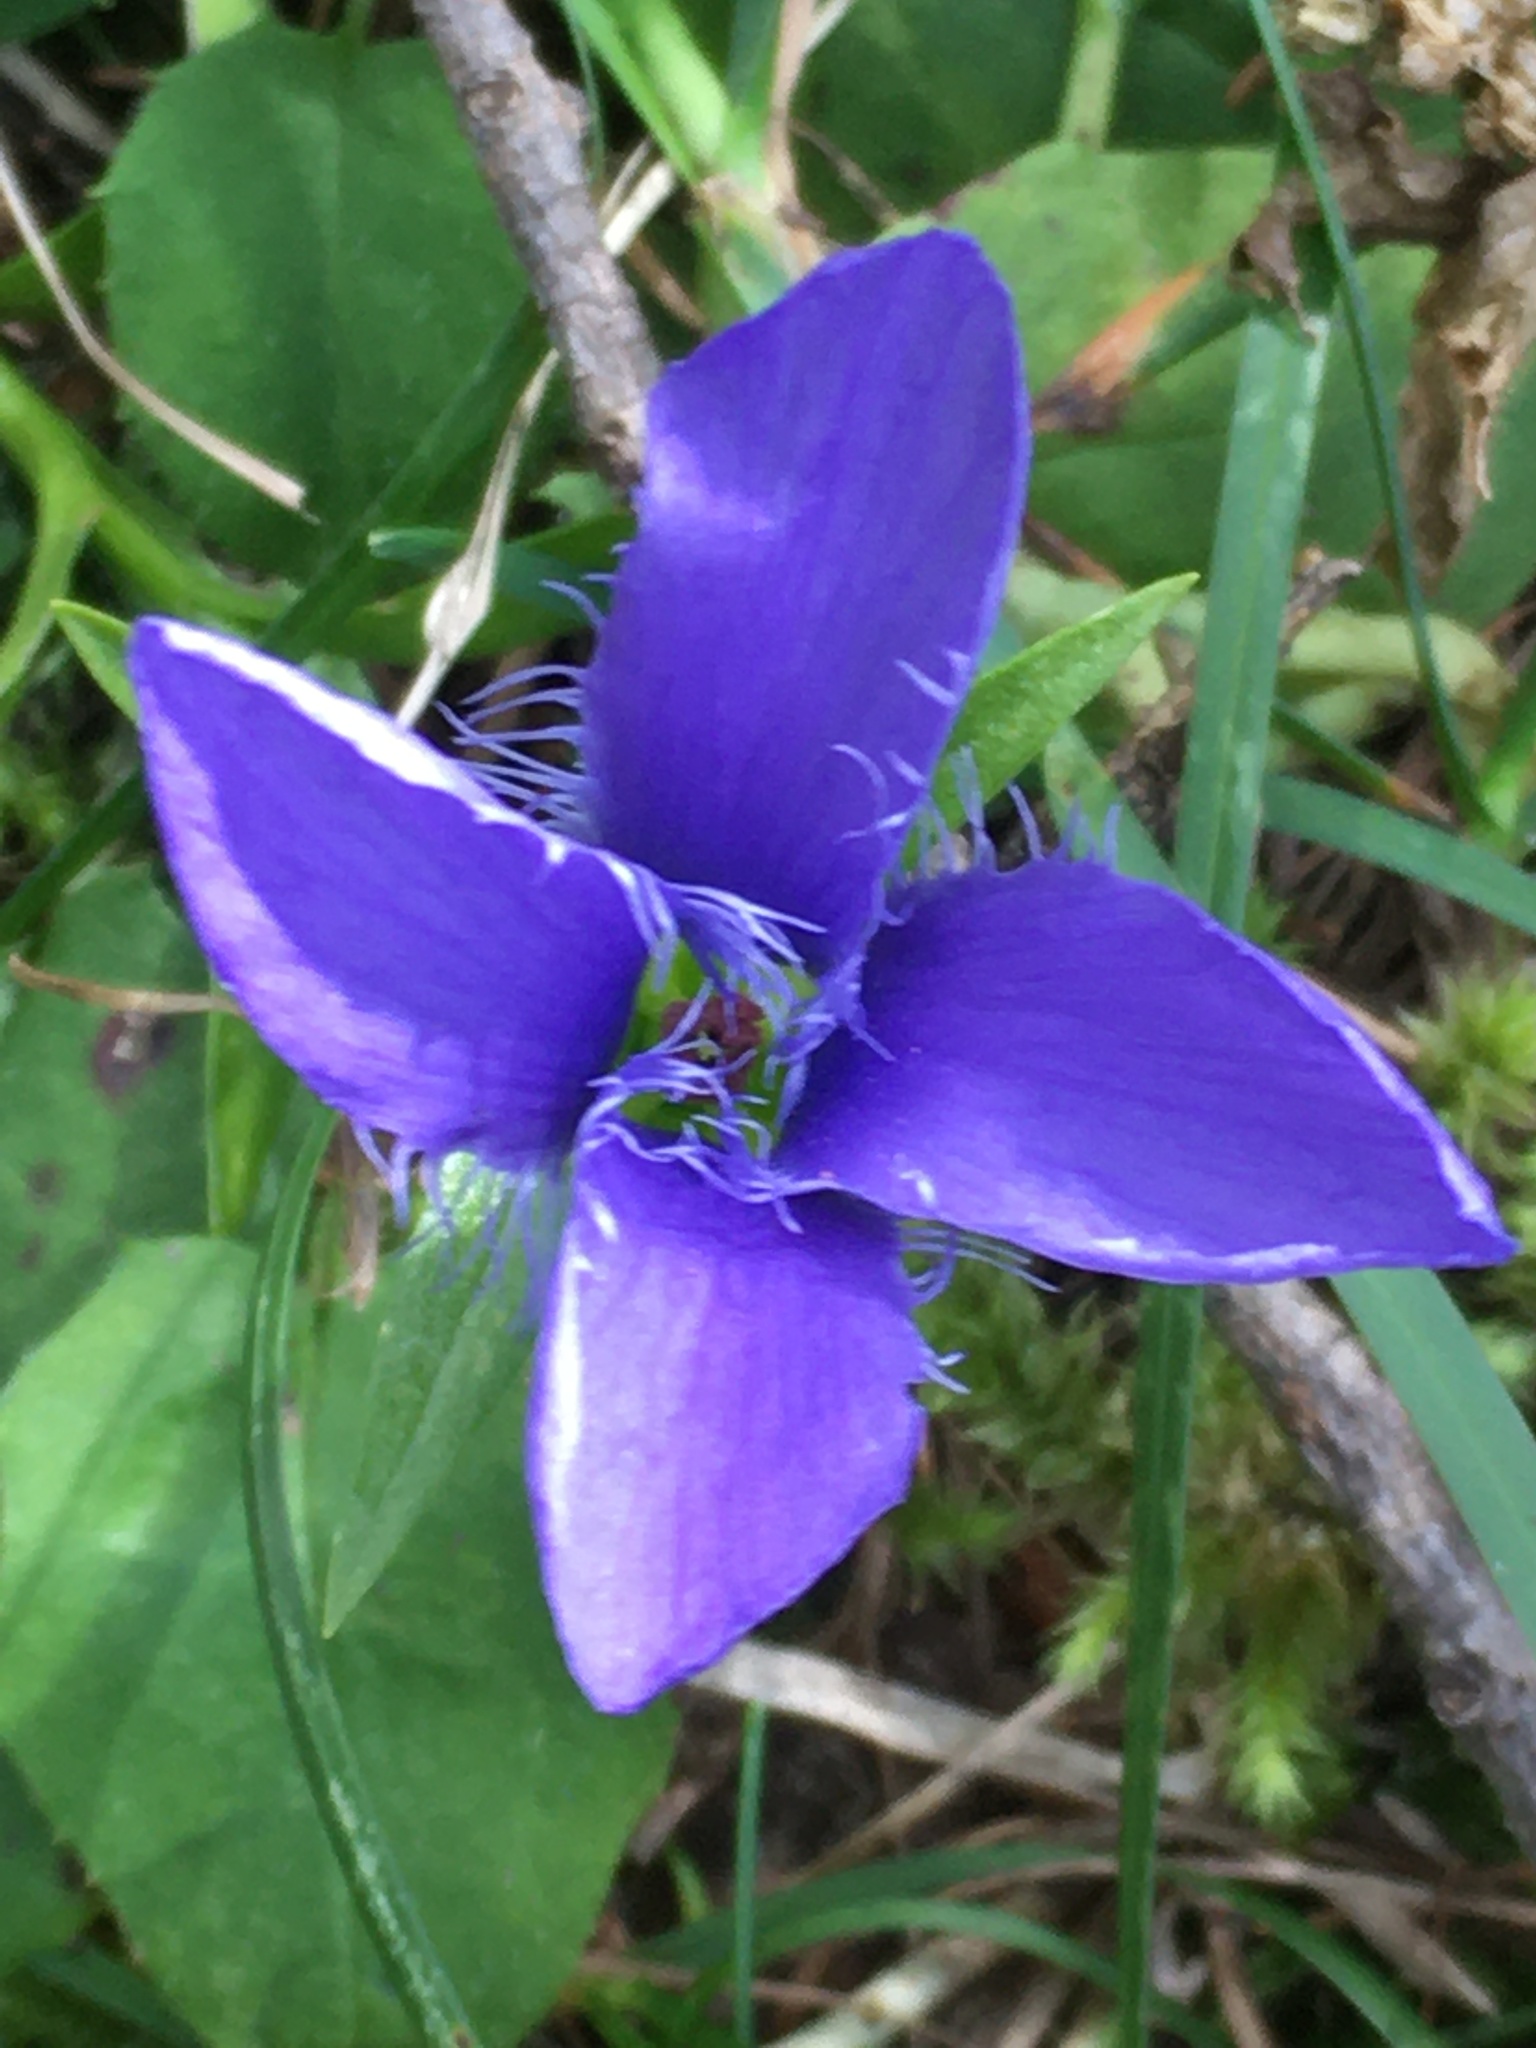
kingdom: Plantae
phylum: Tracheophyta
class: Magnoliopsida
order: Gentianales
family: Gentianaceae
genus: Gentianopsis
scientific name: Gentianopsis ciliata
